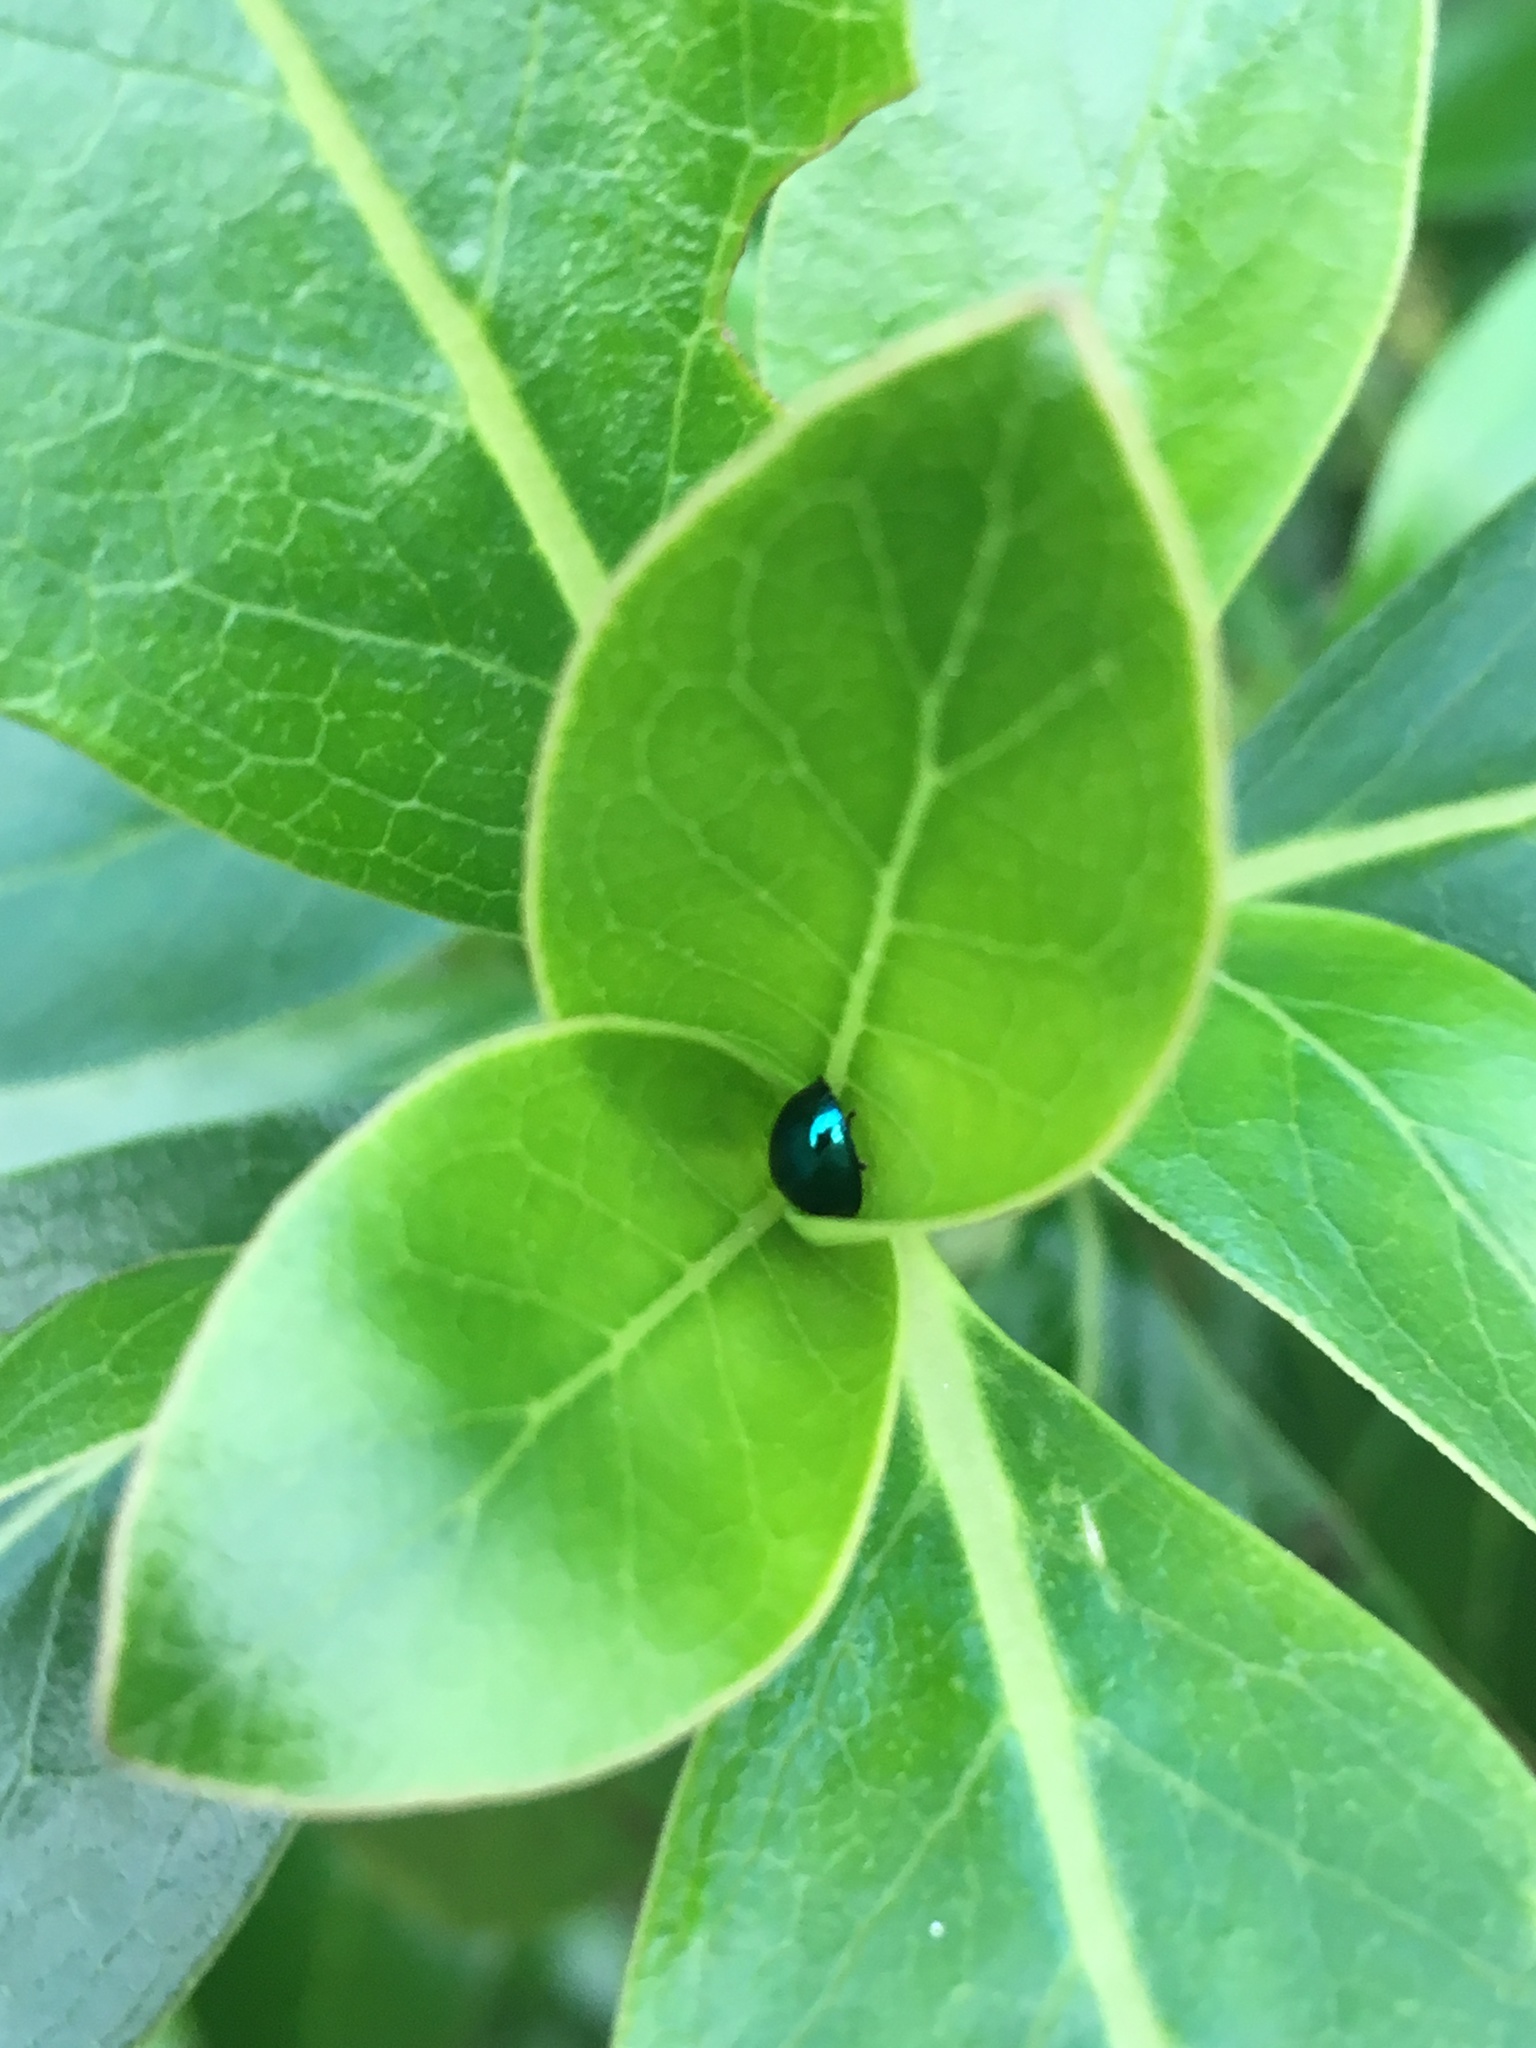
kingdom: Animalia
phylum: Arthropoda
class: Insecta
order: Coleoptera
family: Coccinellidae
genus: Halmus
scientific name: Halmus chalybeus
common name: Steel blue ladybird beetle
